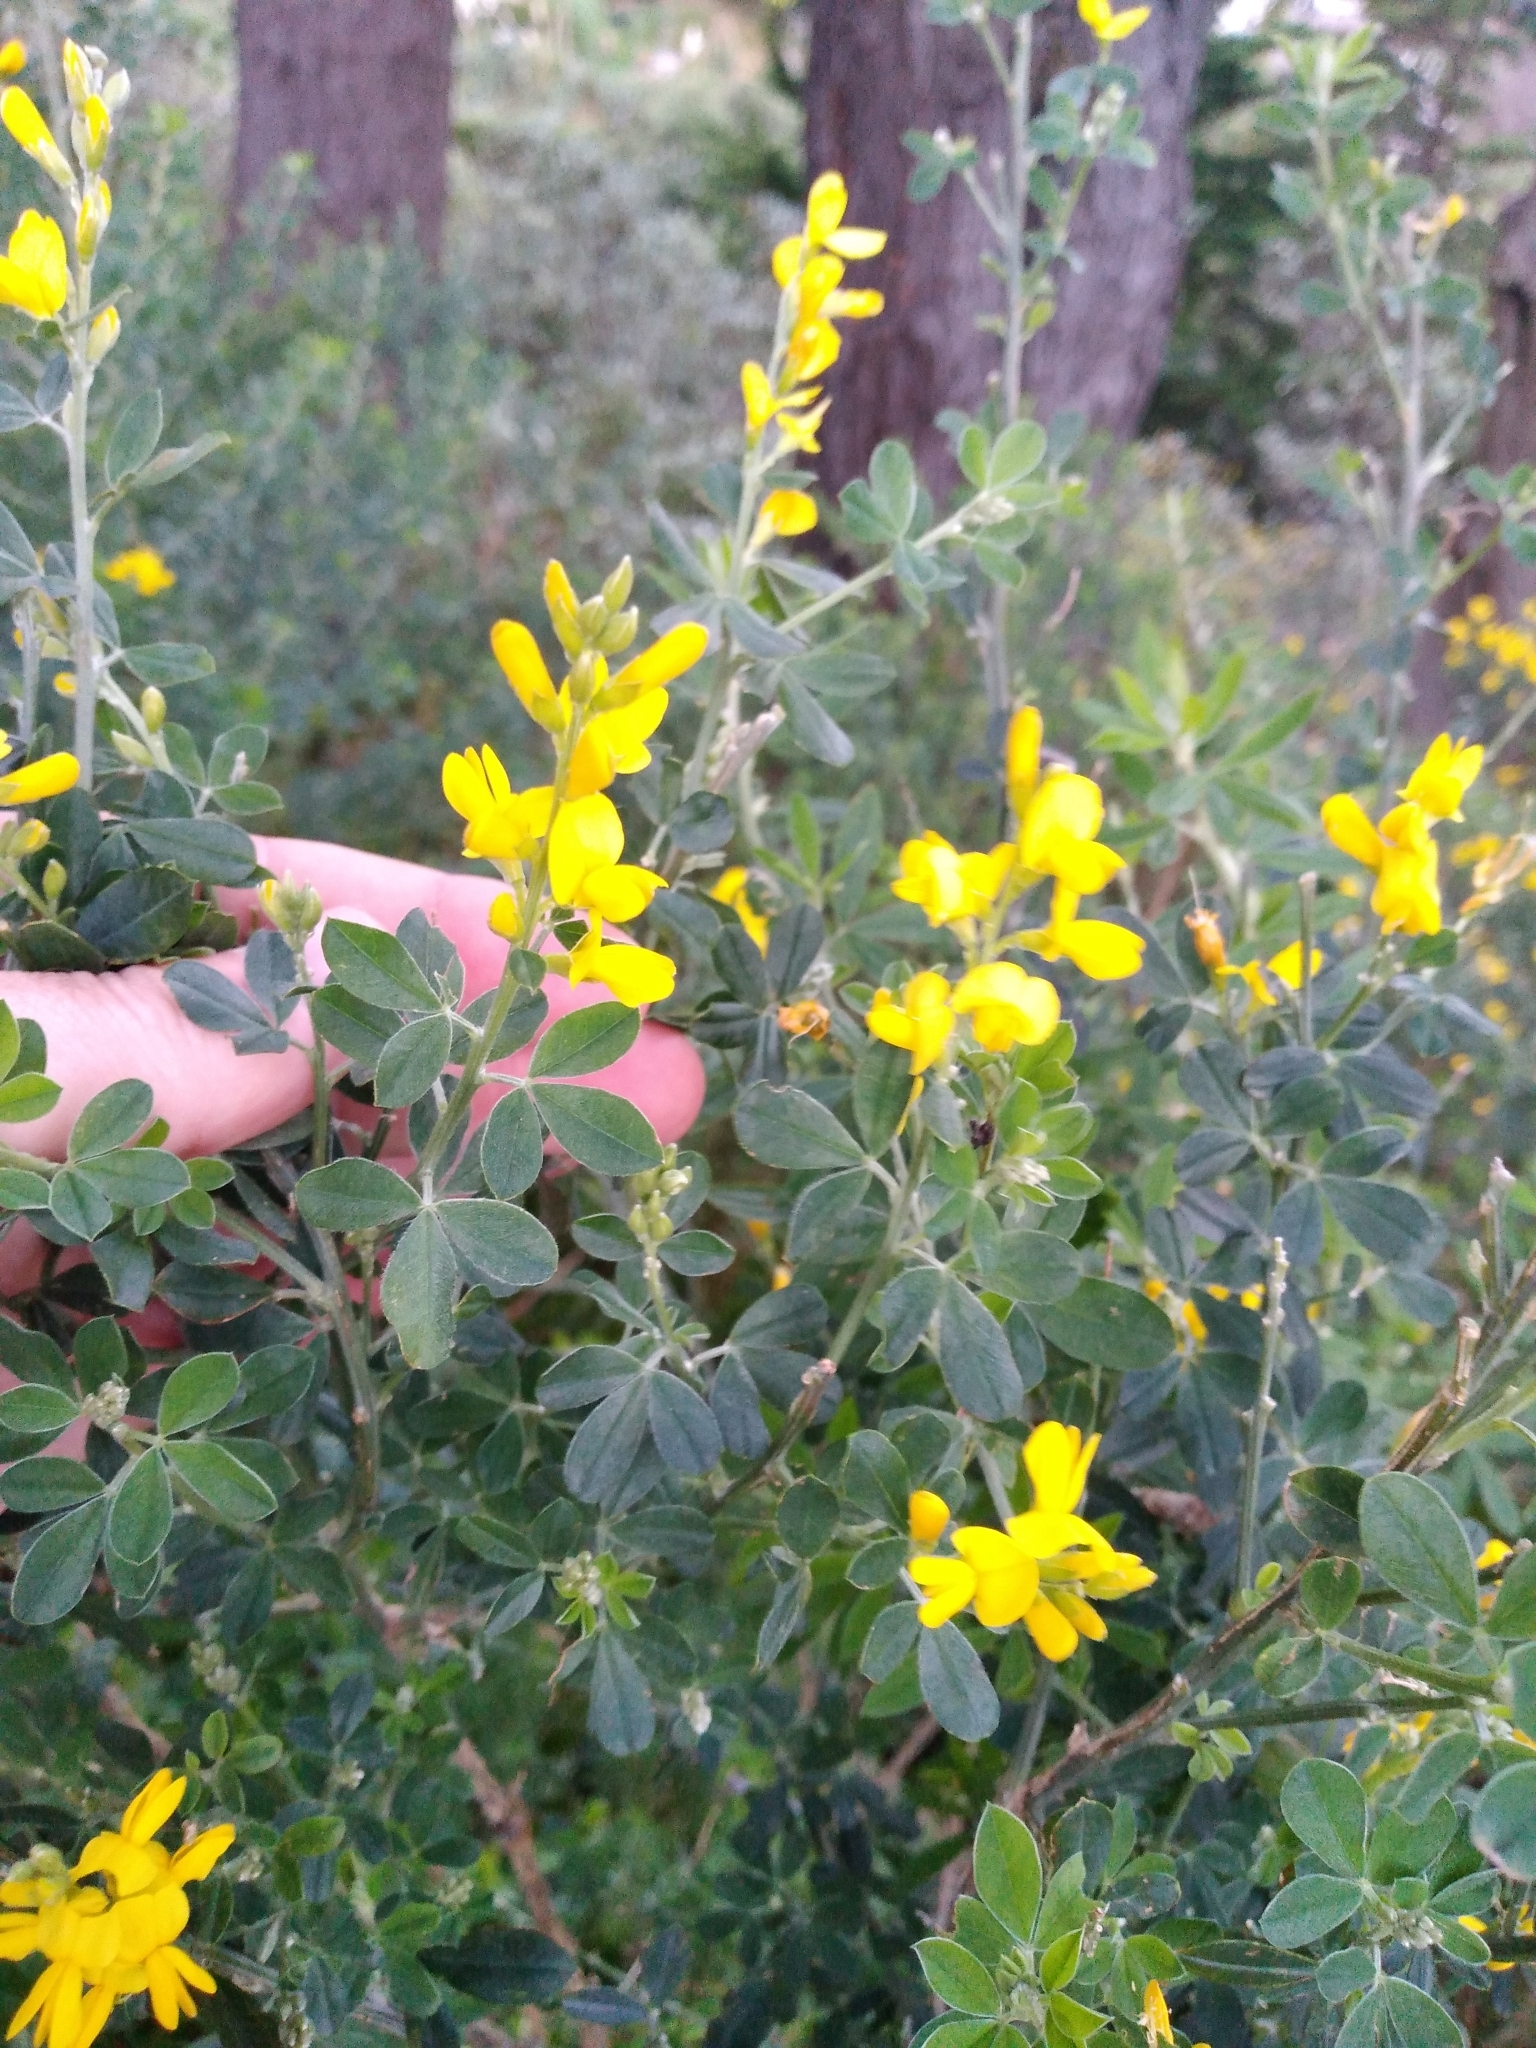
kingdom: Plantae
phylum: Tracheophyta
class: Magnoliopsida
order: Fabales
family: Fabaceae
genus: Genista
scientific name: Genista monspessulana
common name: Montpellier broom
